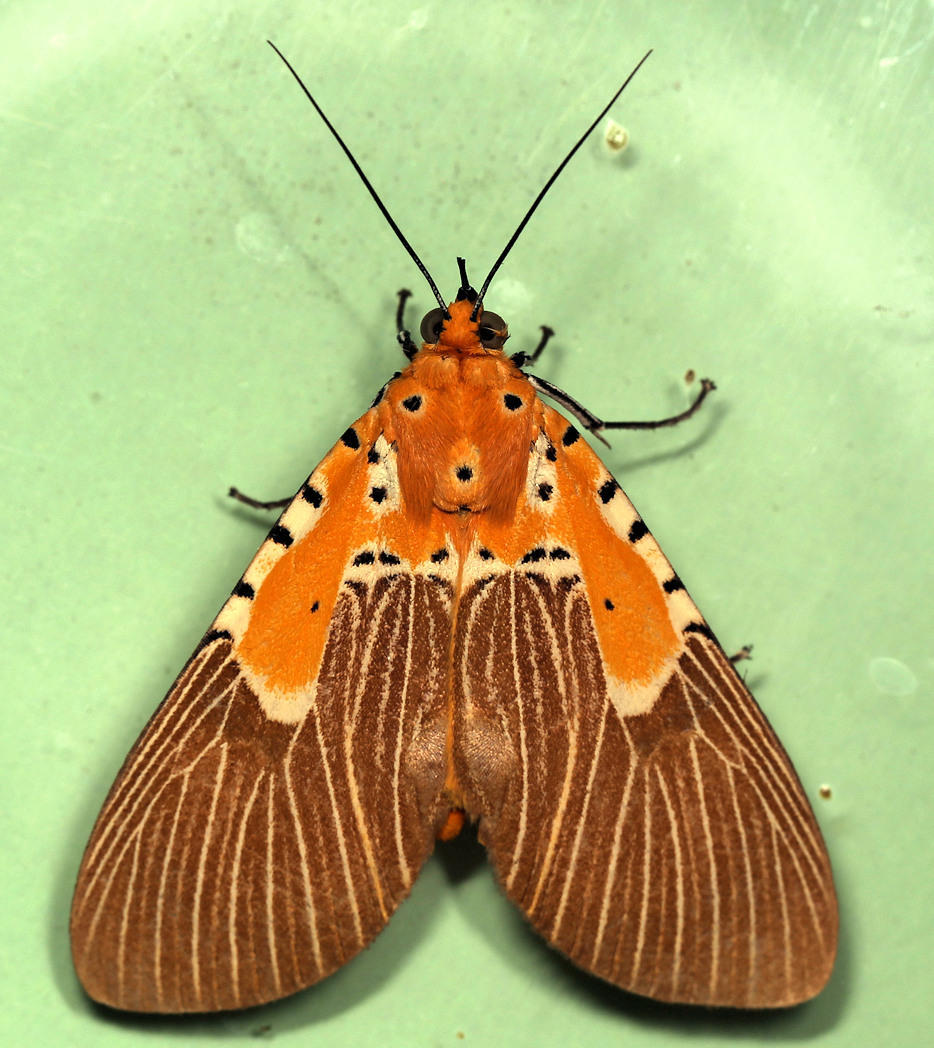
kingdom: Animalia
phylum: Arthropoda
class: Insecta
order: Lepidoptera
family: Erebidae
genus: Asota
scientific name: Asota speciosa
